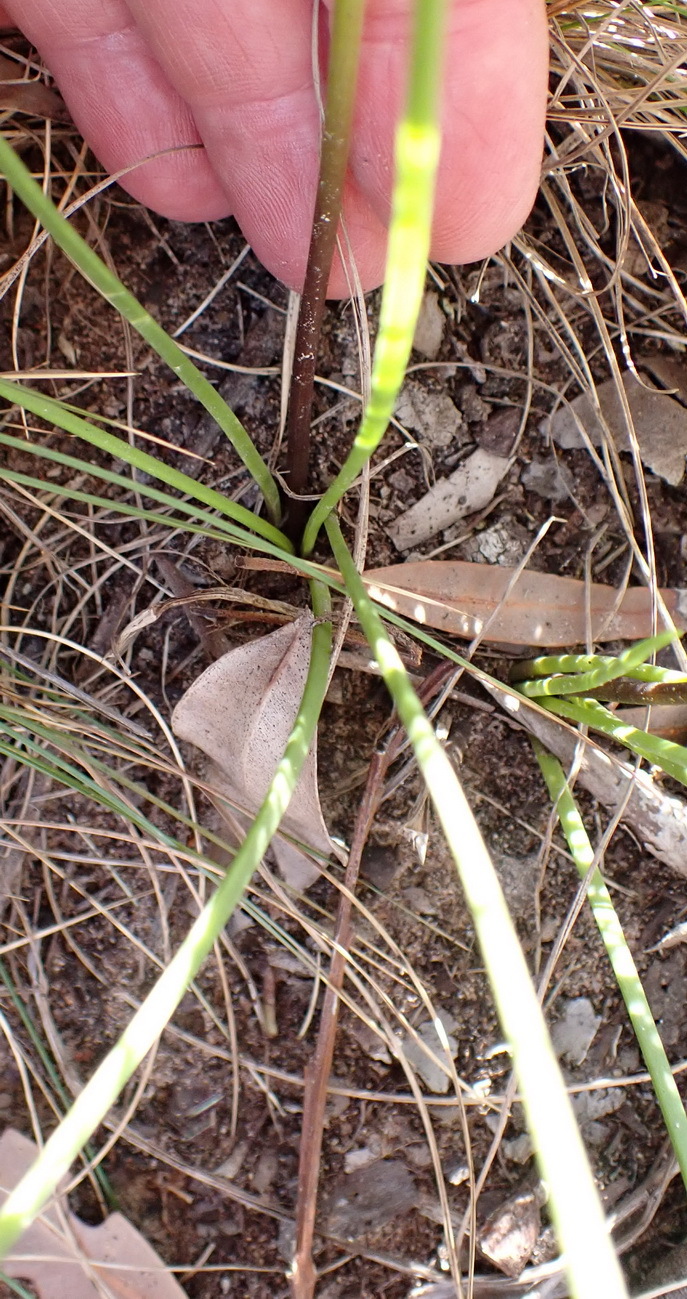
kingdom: Plantae
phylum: Tracheophyta
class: Liliopsida
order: Asparagales
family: Asparagaceae
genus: Drimia
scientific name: Drimia media
